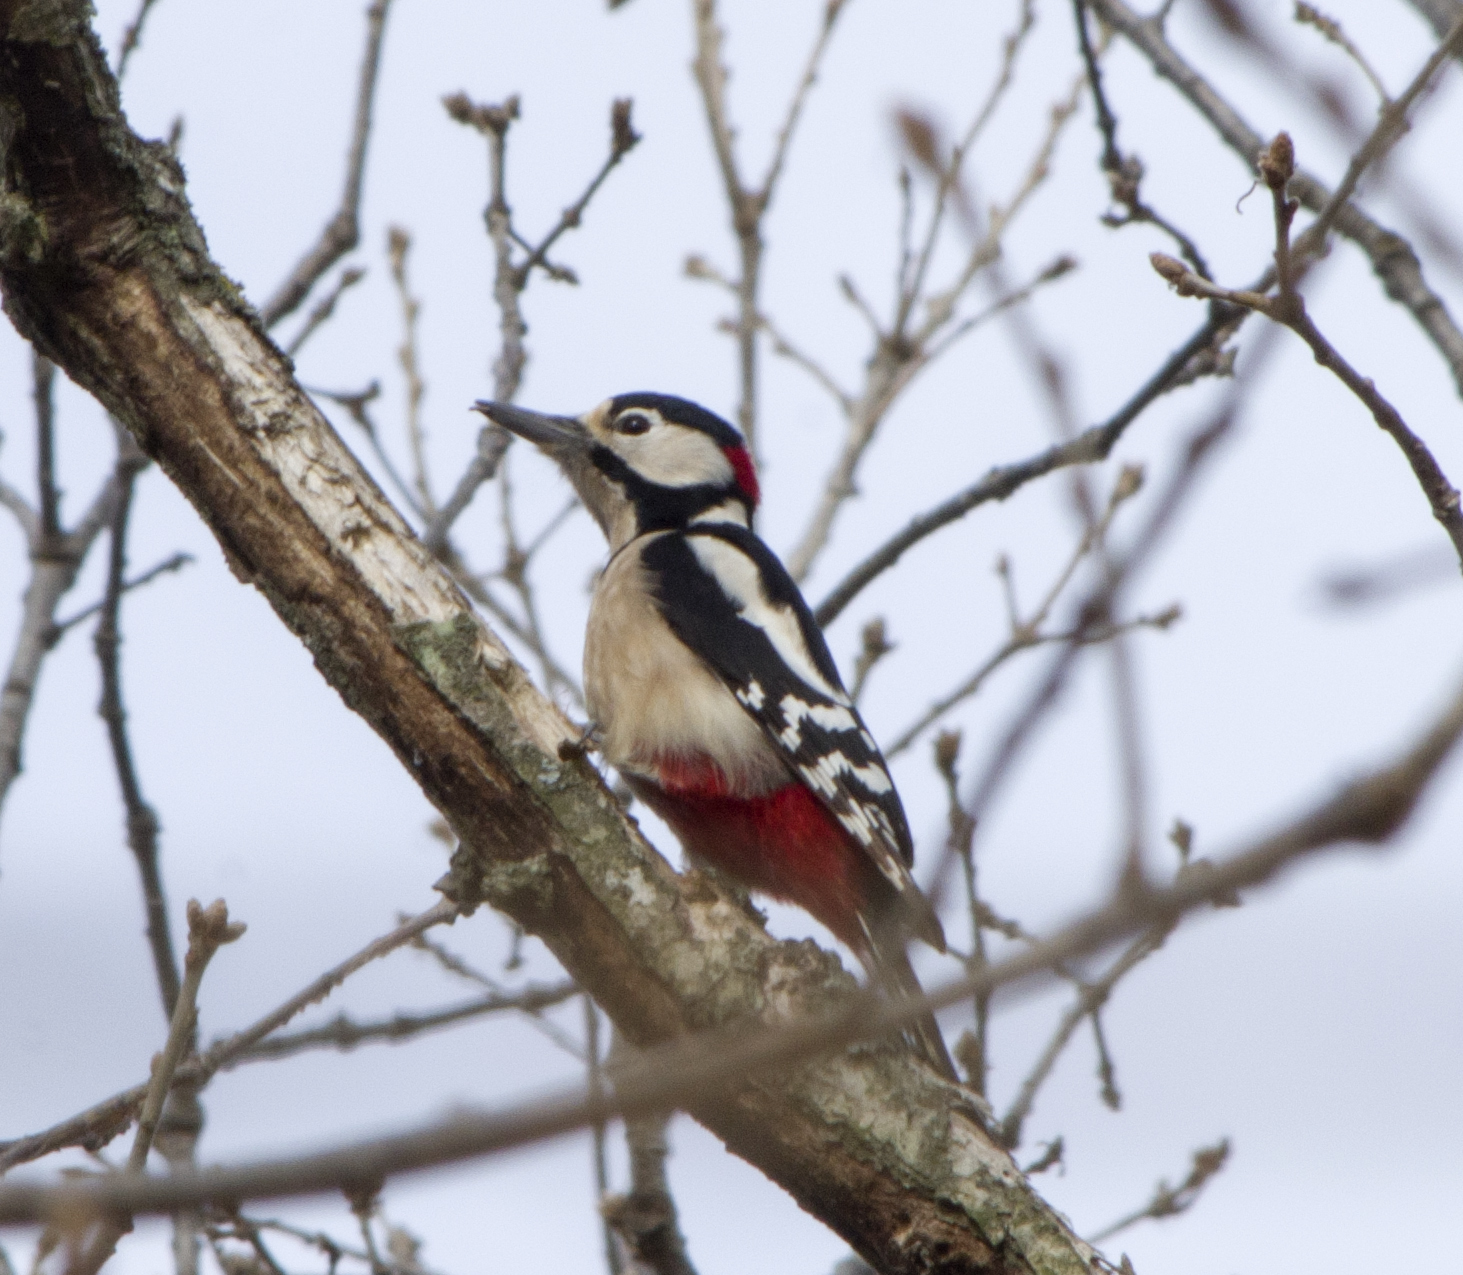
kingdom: Animalia
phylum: Chordata
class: Aves
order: Piciformes
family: Picidae
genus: Dendrocopos
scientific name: Dendrocopos major
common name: Great spotted woodpecker
